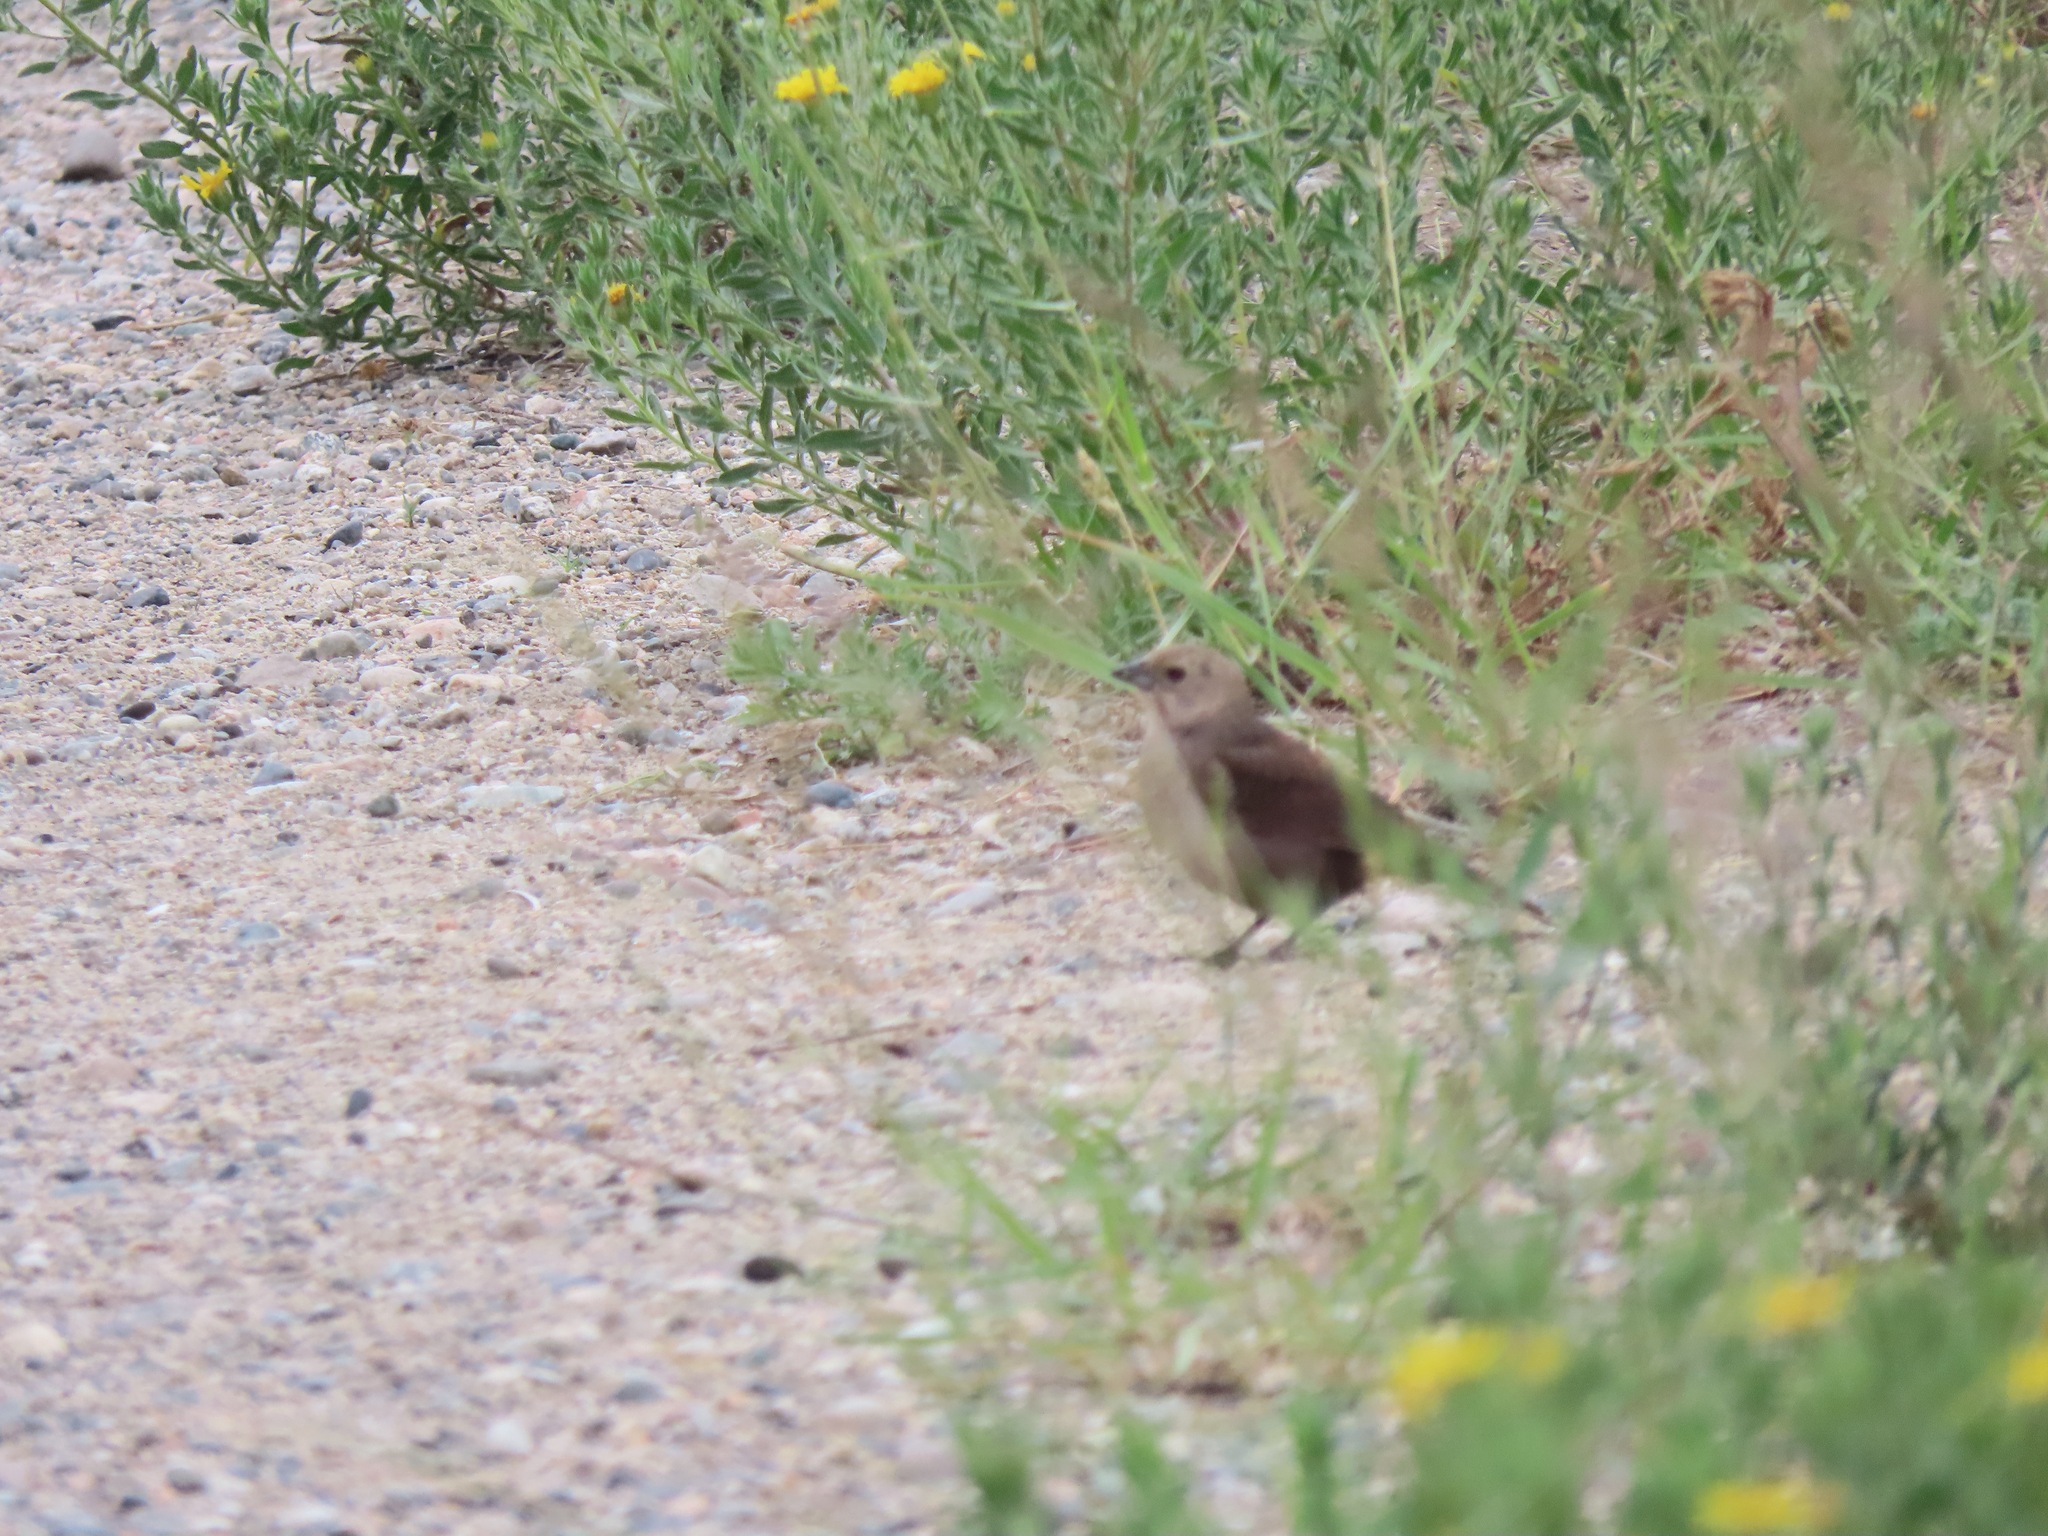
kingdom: Animalia
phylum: Chordata
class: Aves
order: Passeriformes
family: Icteridae
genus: Molothrus
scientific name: Molothrus ater
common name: Brown-headed cowbird
